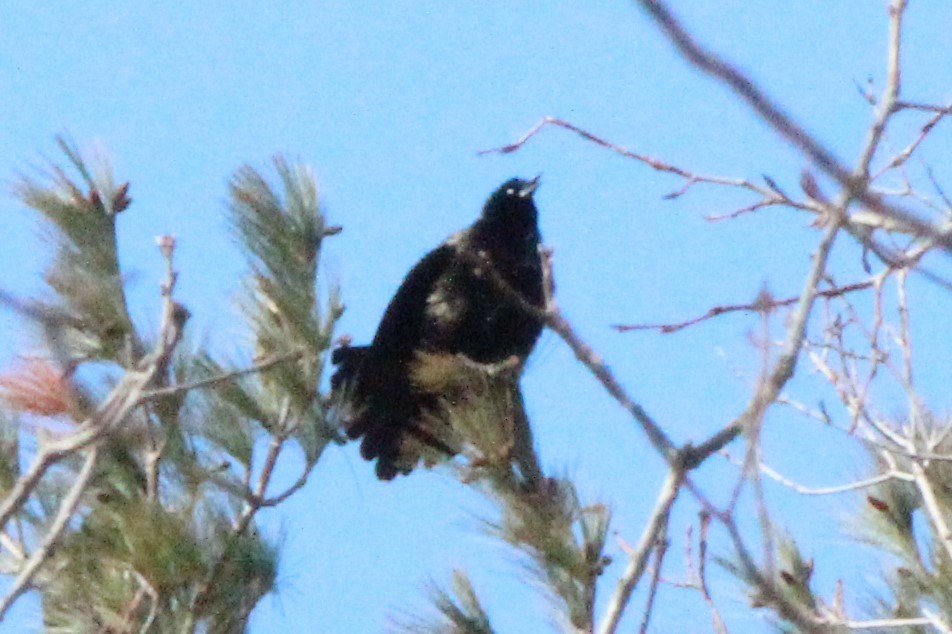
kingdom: Animalia
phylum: Chordata
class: Aves
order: Passeriformes
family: Icteridae
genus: Quiscalus
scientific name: Quiscalus quiscula
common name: Common grackle
